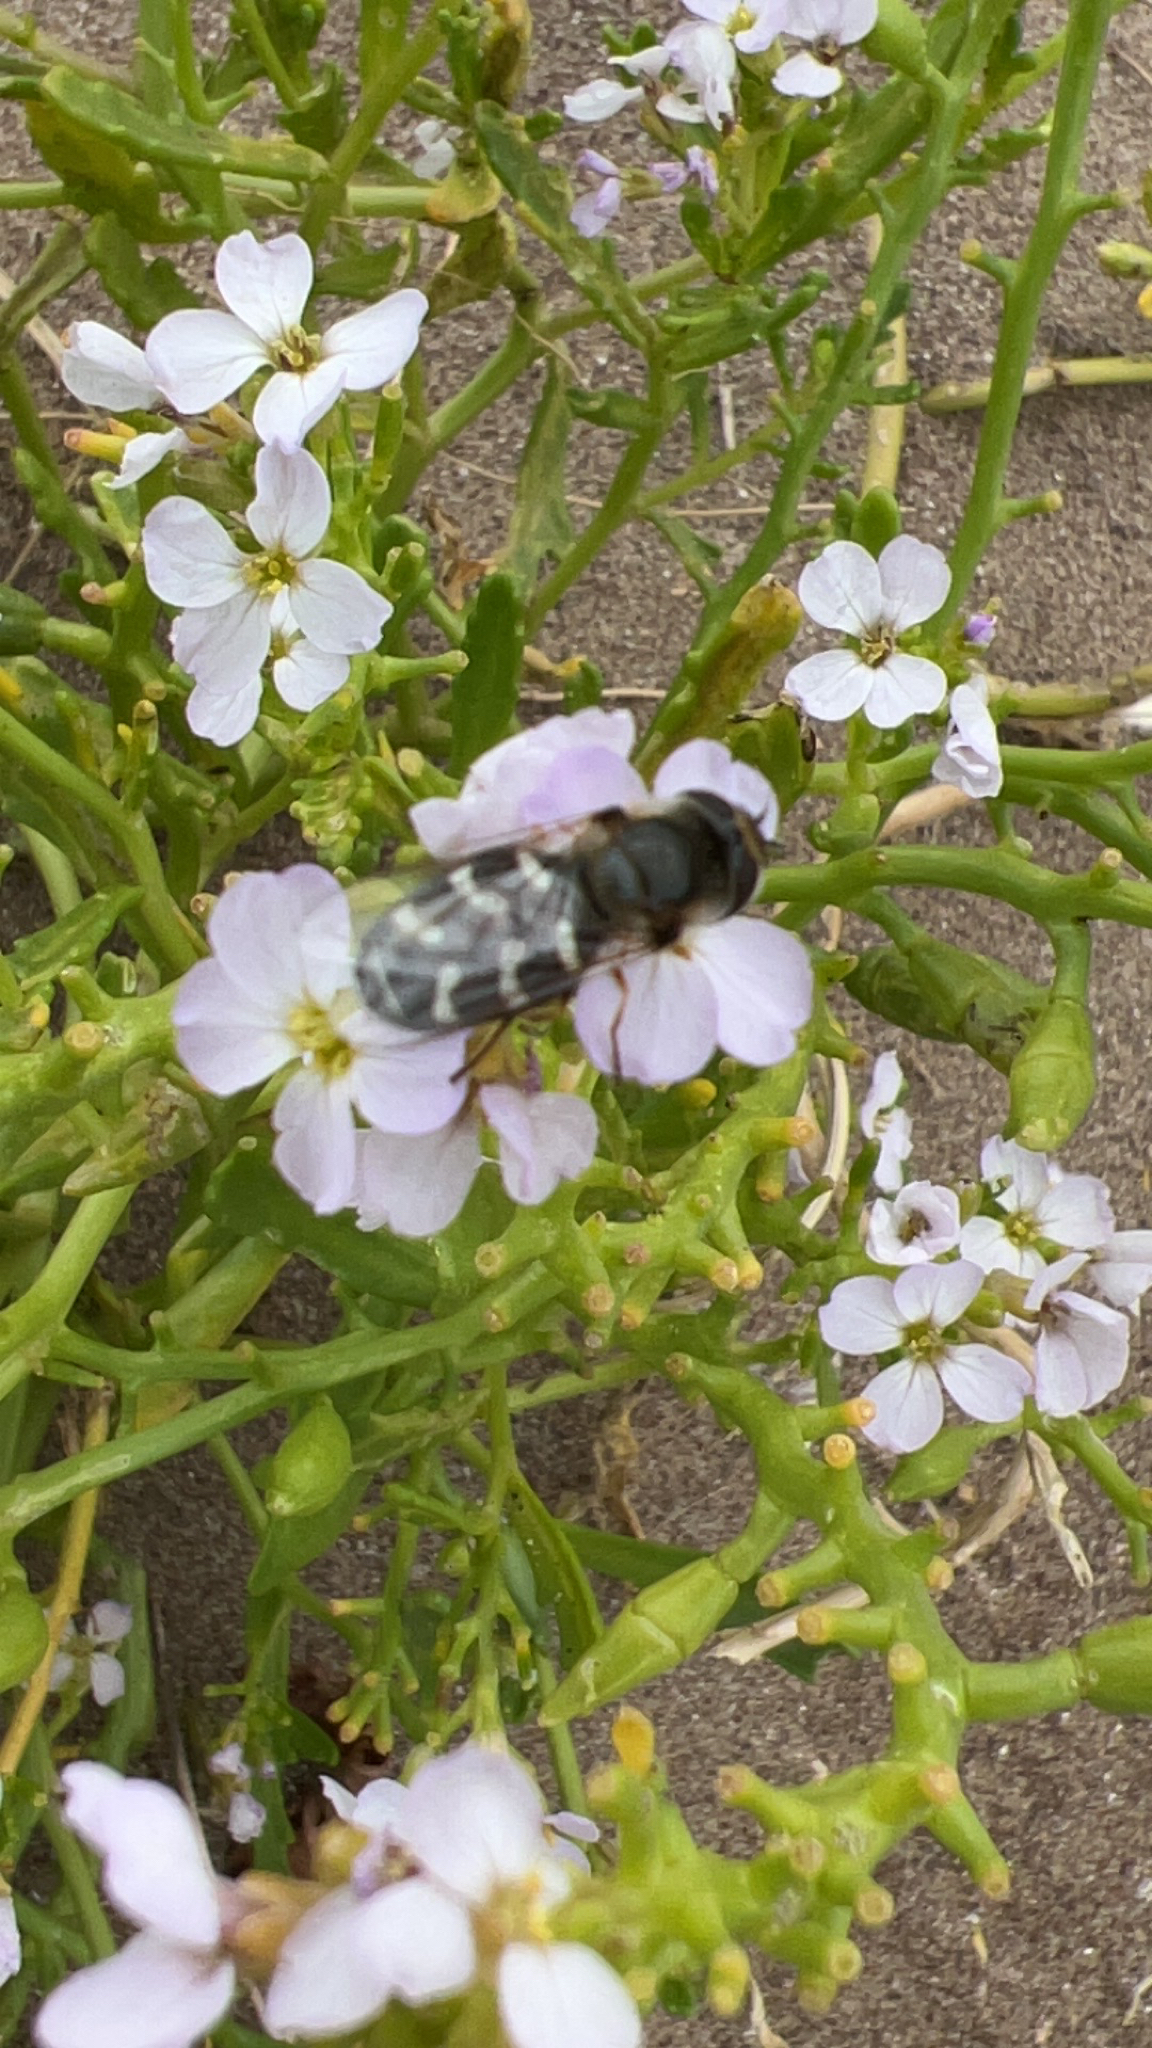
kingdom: Animalia
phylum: Arthropoda
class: Insecta
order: Diptera
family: Syrphidae
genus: Scaeva
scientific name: Scaeva pyrastri
